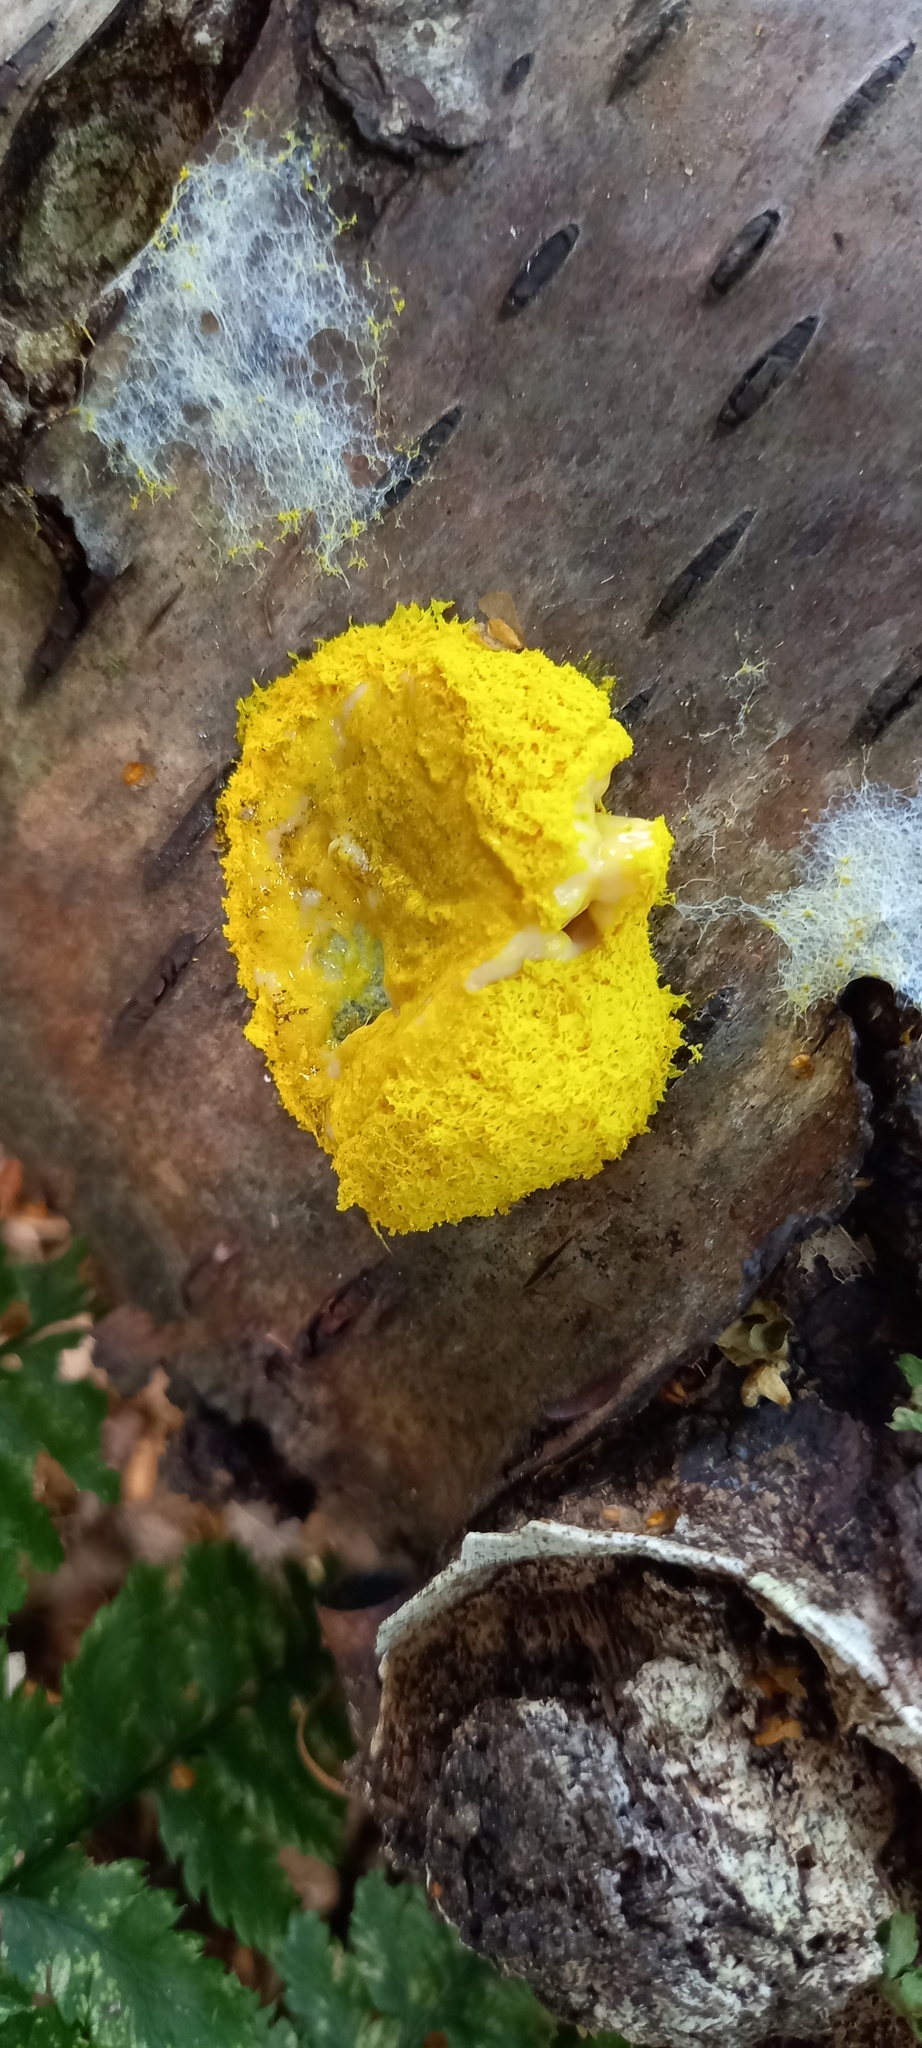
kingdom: Protozoa
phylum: Mycetozoa
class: Myxomycetes
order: Physarales
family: Physaraceae
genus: Fuligo
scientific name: Fuligo septica
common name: Dog vomit slime mold
